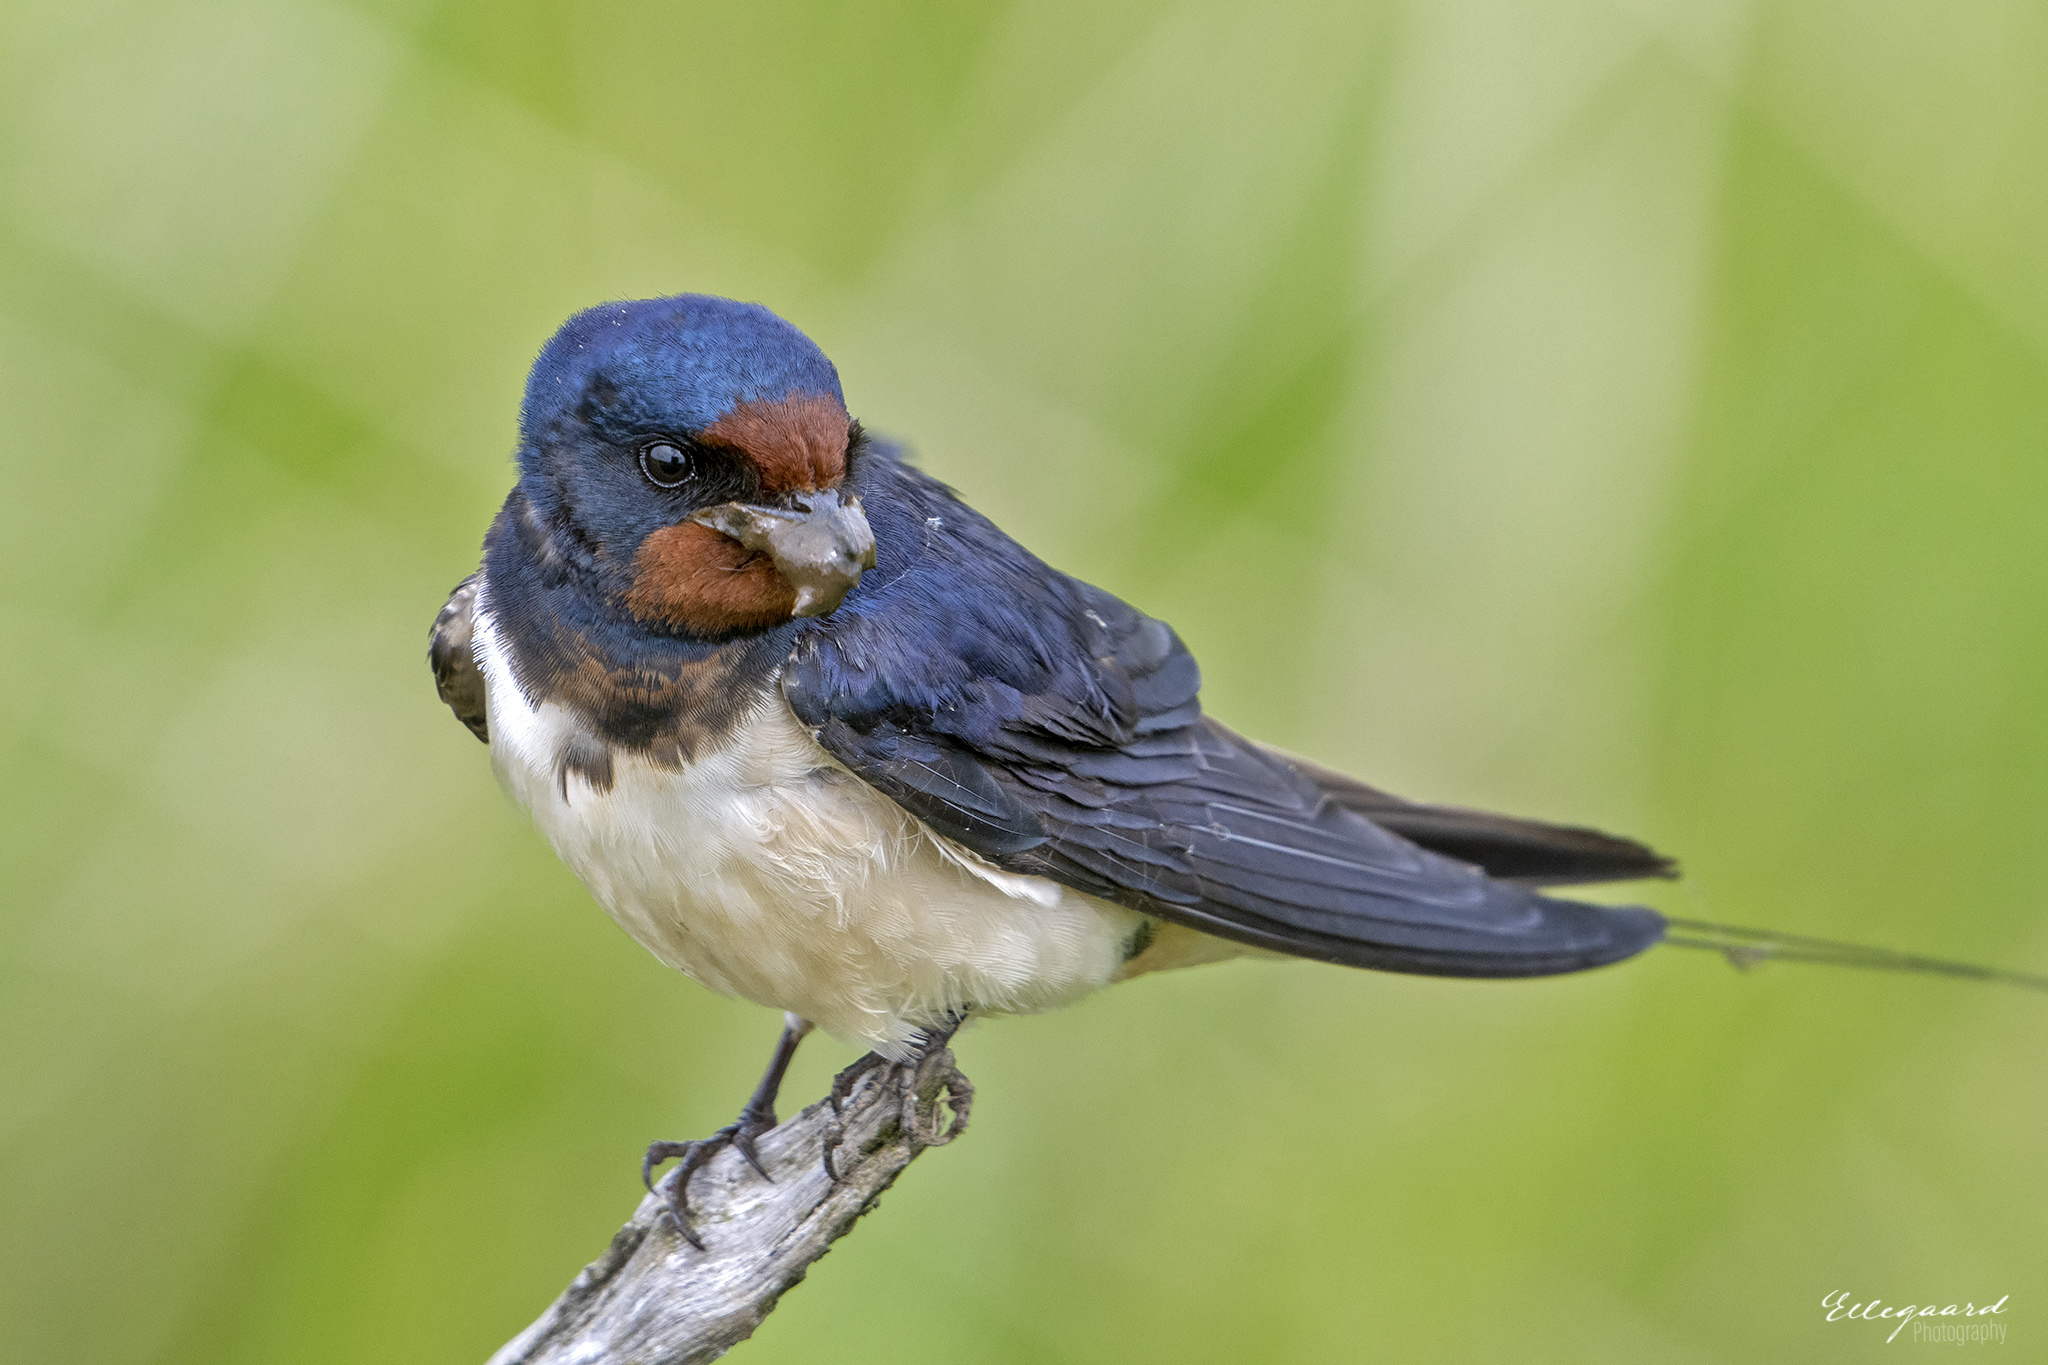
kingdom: Animalia
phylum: Chordata
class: Aves
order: Passeriformes
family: Hirundinidae
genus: Hirundo
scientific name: Hirundo rustica
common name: Barn swallow
